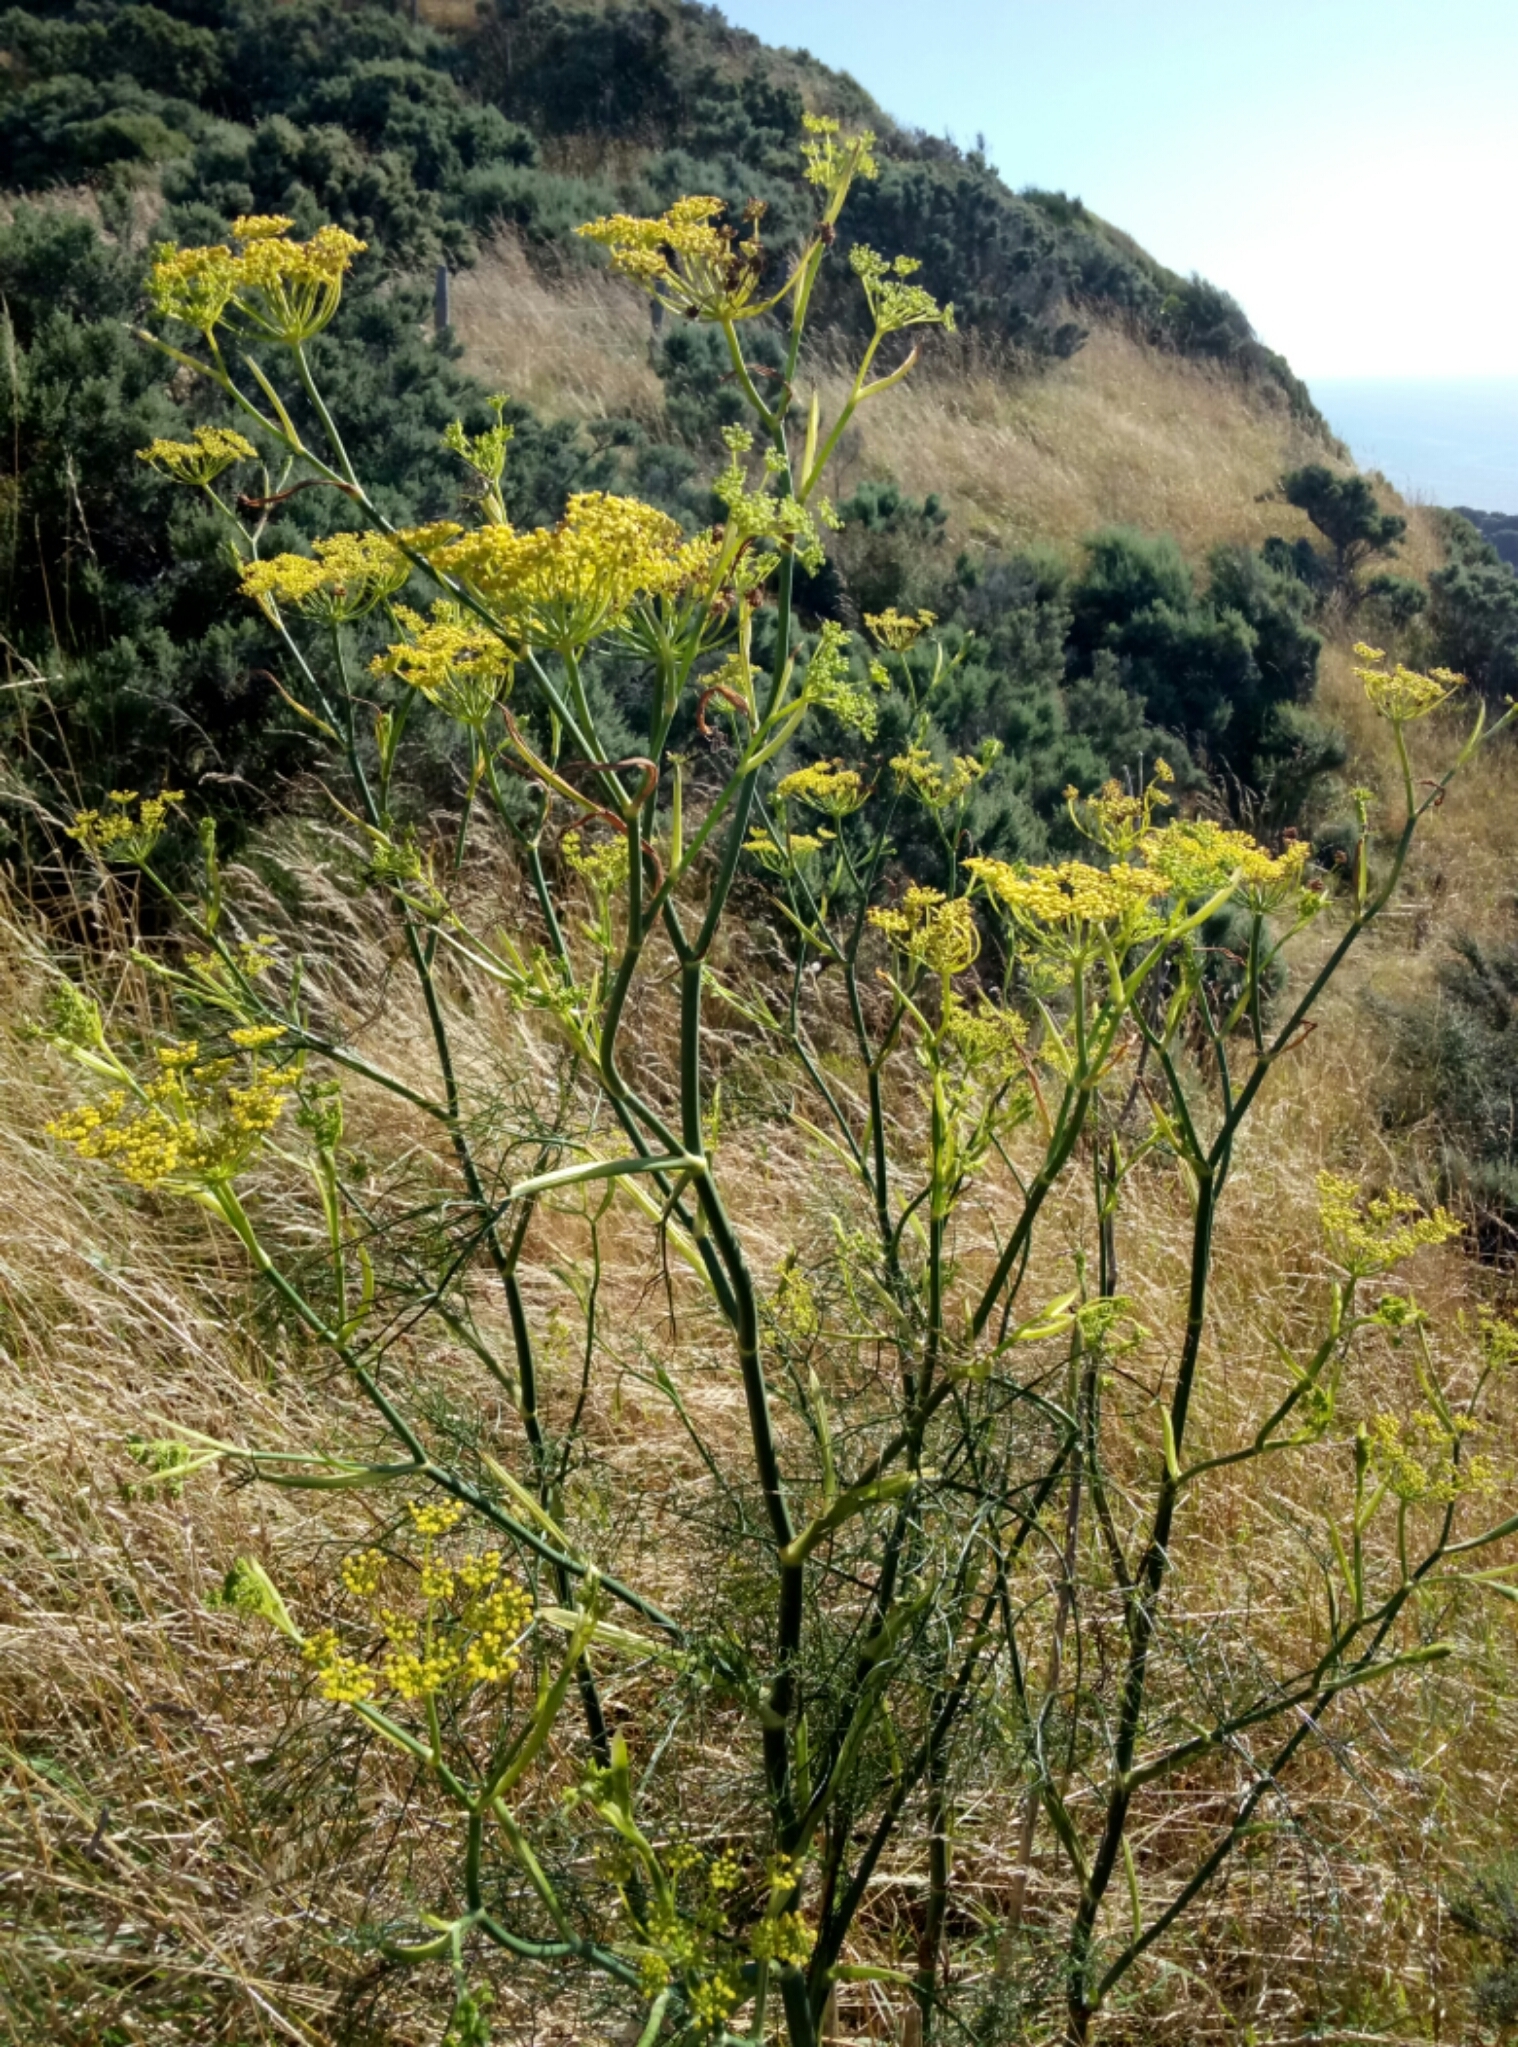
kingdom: Plantae
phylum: Tracheophyta
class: Magnoliopsida
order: Apiales
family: Apiaceae
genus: Foeniculum
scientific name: Foeniculum vulgare
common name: Fennel
